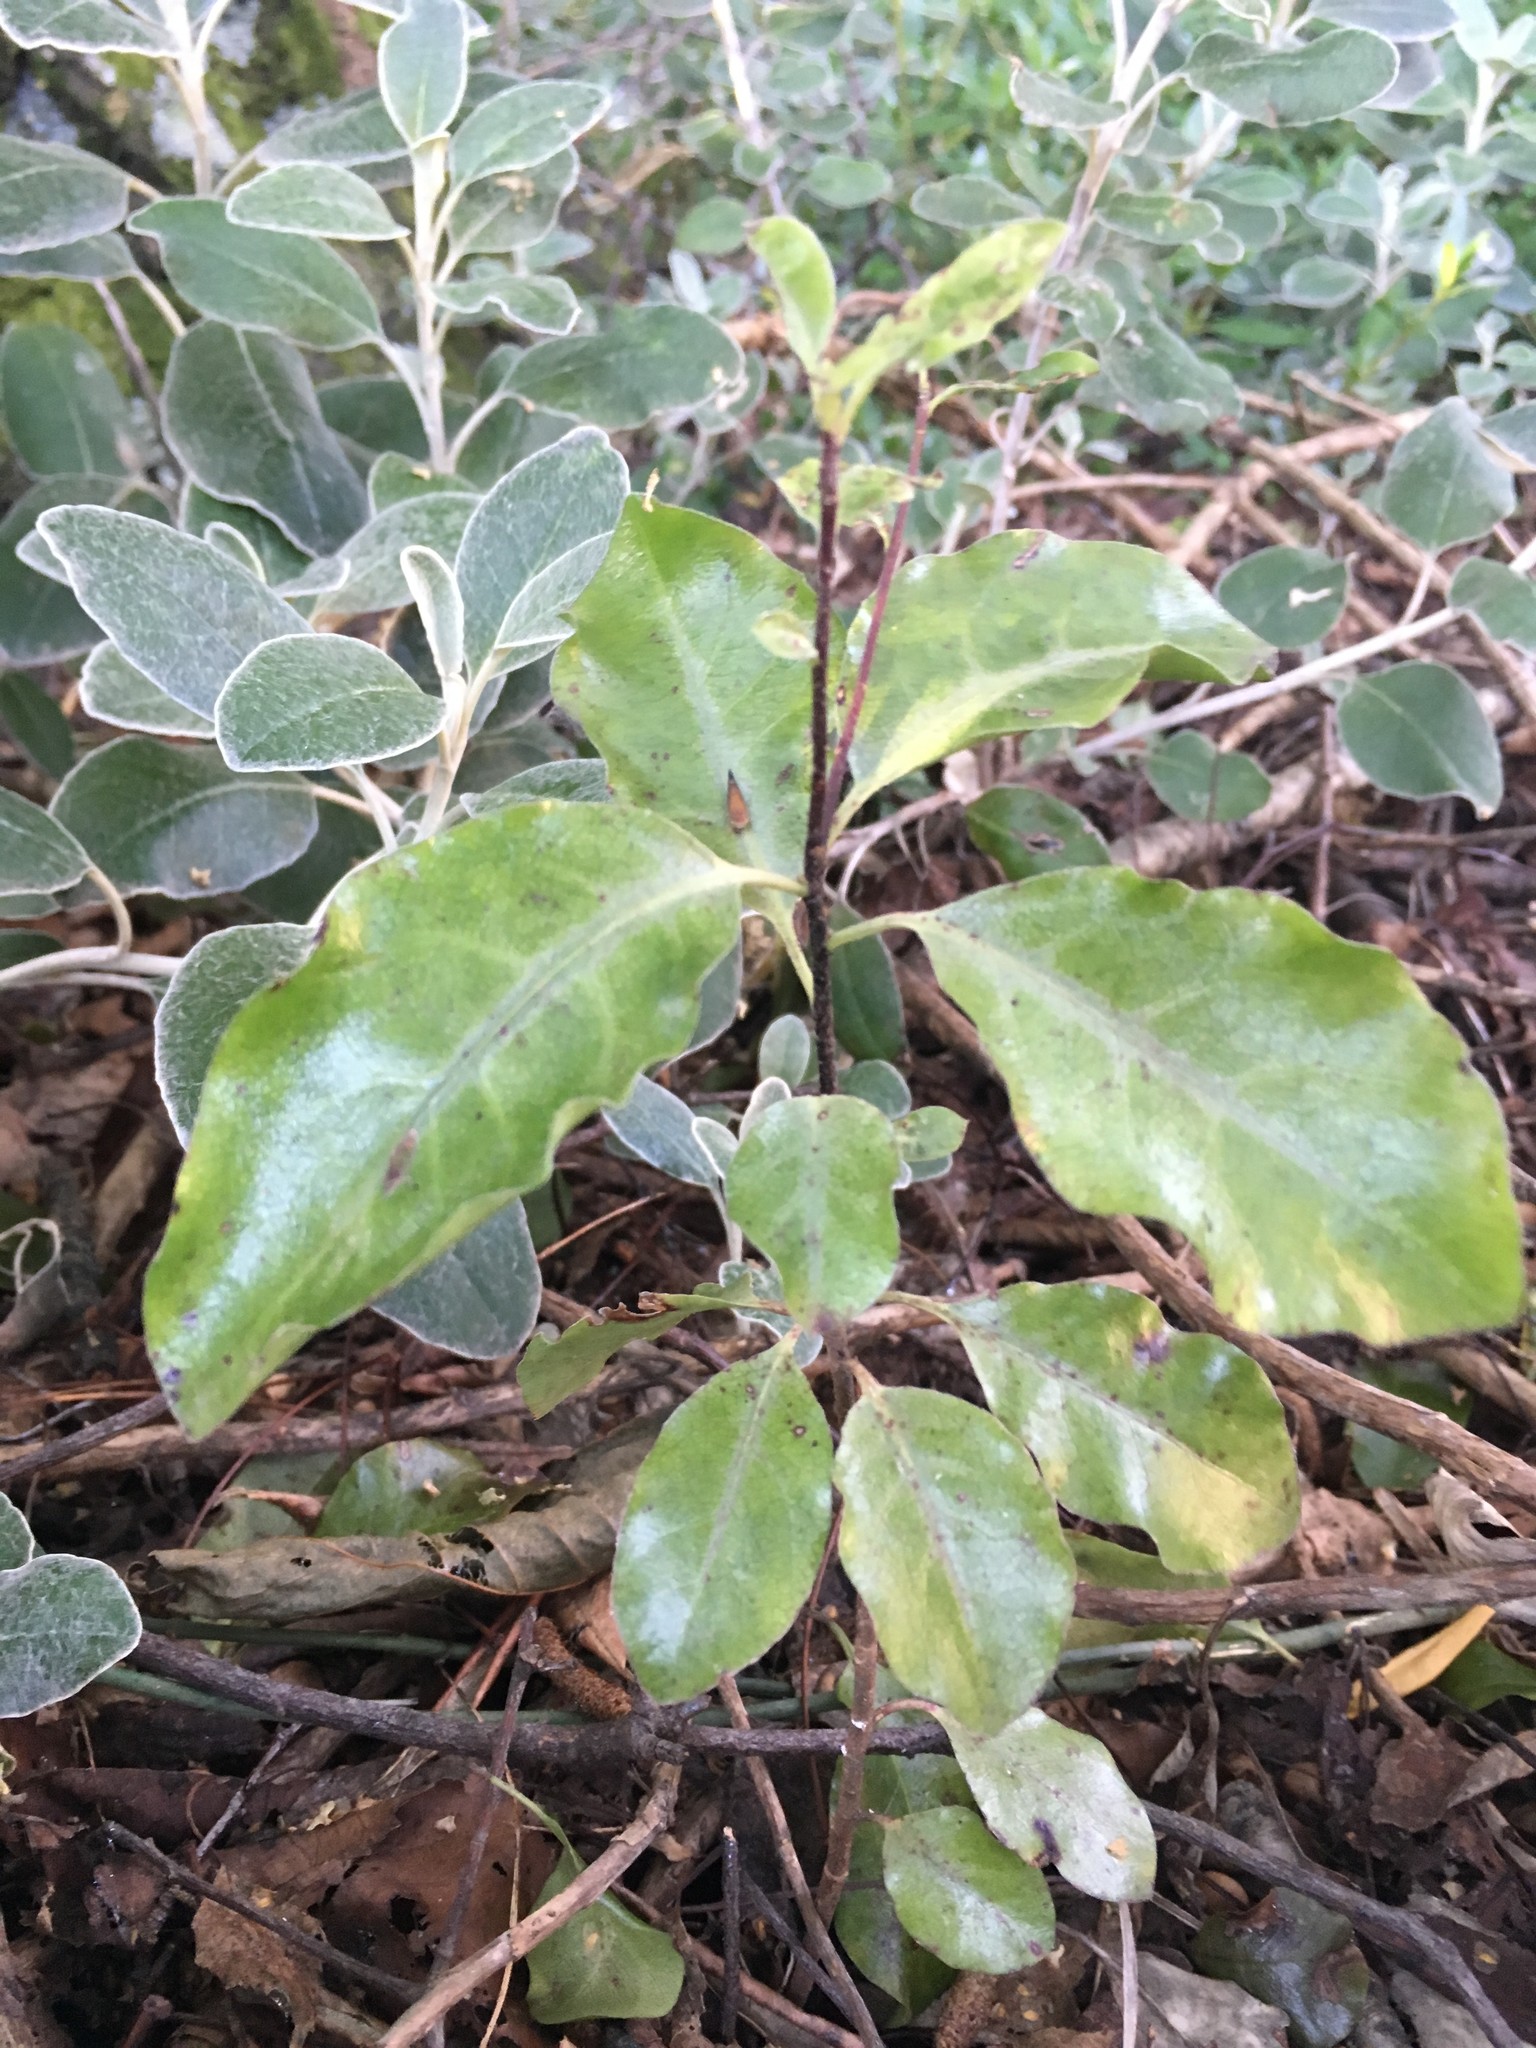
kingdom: Plantae
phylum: Tracheophyta
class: Magnoliopsida
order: Apiales
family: Pittosporaceae
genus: Pittosporum
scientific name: Pittosporum tenuifolium
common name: Kohuhu
